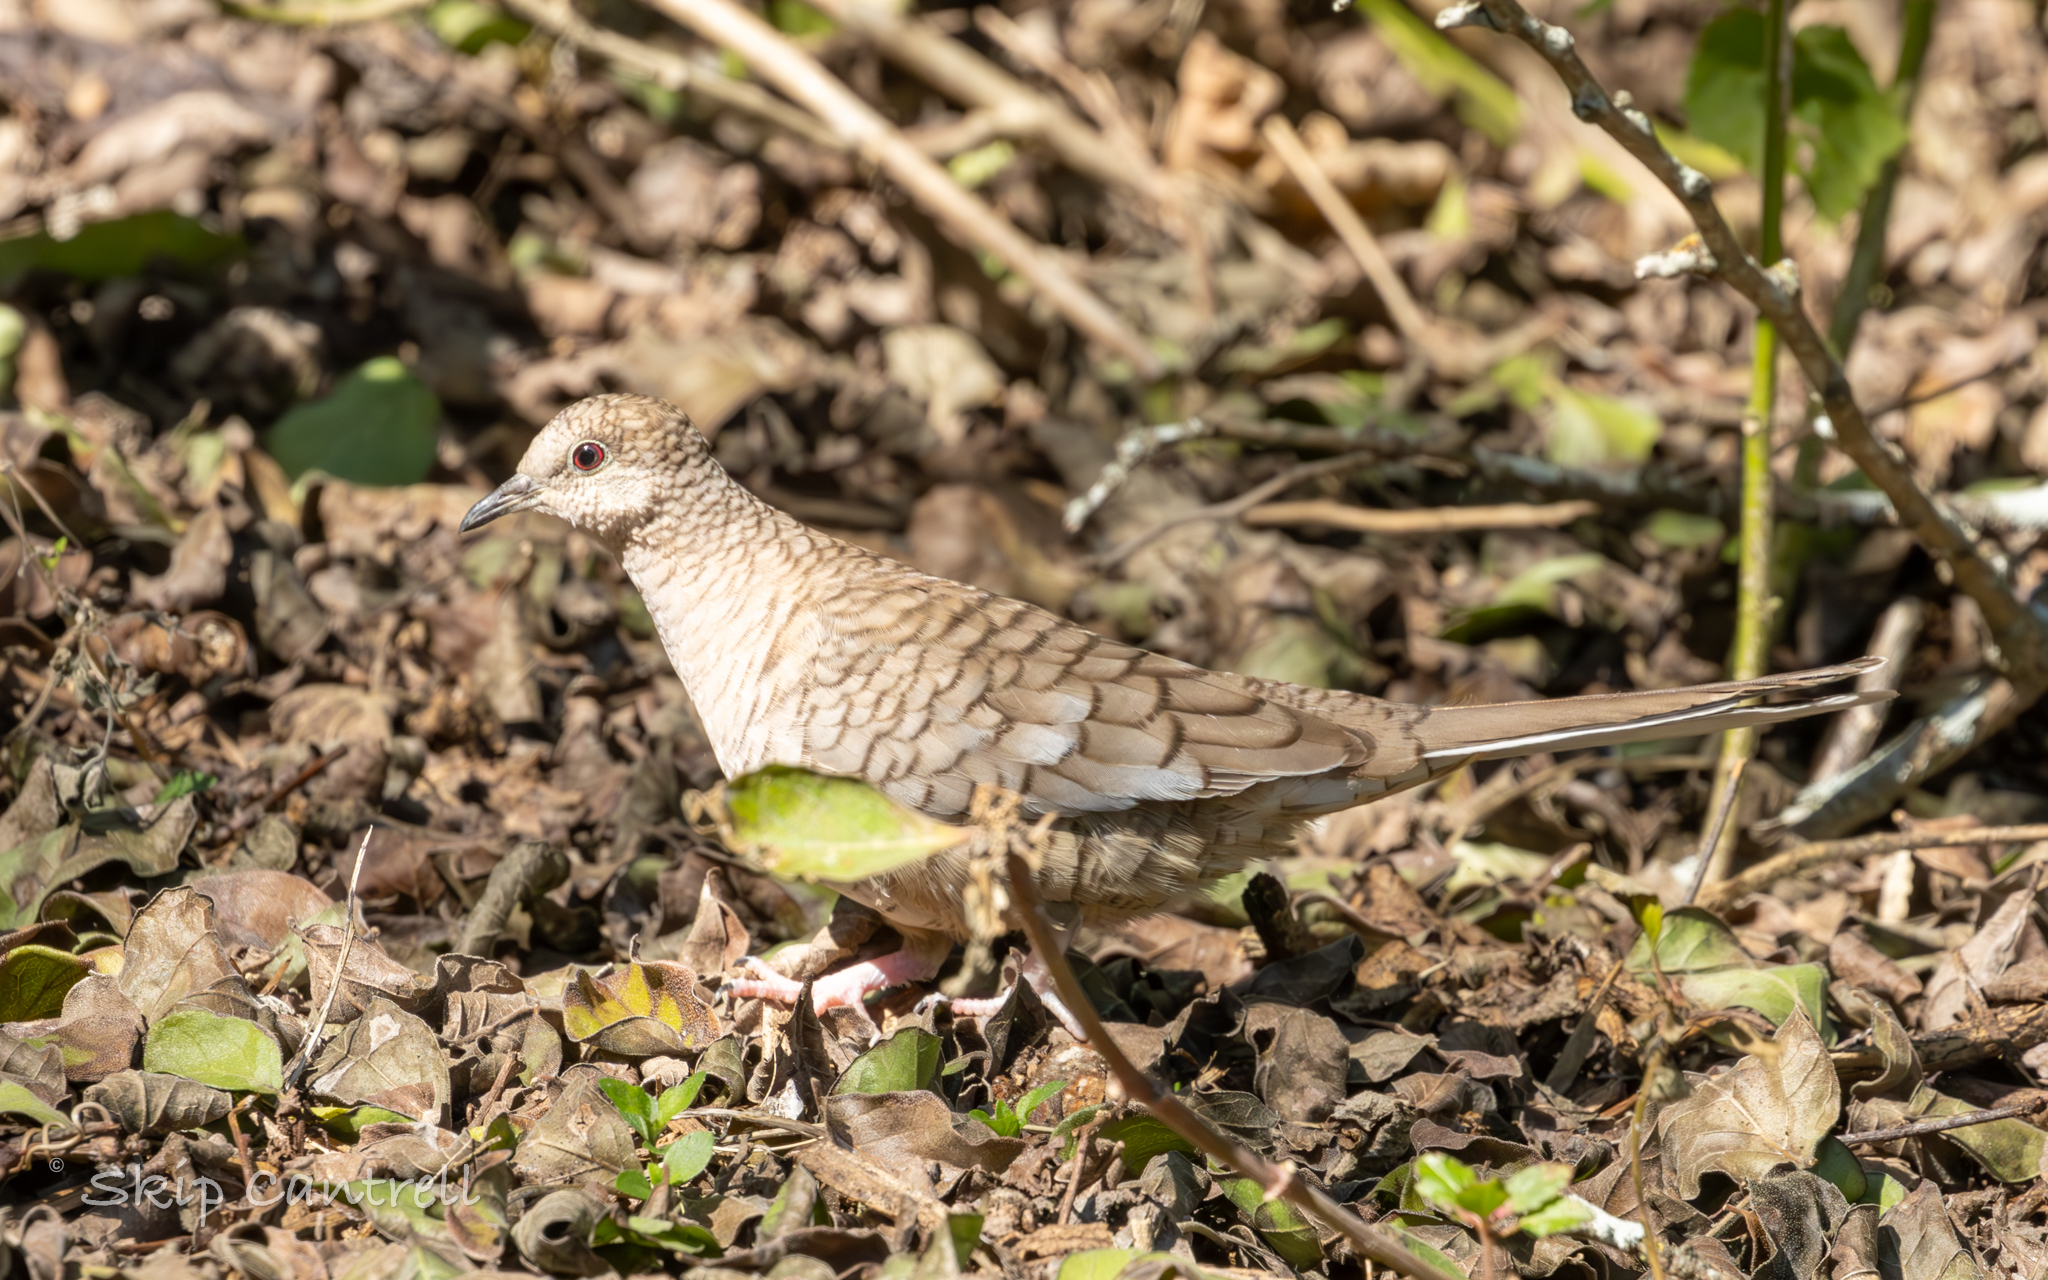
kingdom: Animalia
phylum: Chordata
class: Aves
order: Columbiformes
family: Columbidae
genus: Columbina
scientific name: Columbina inca
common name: Inca dove
